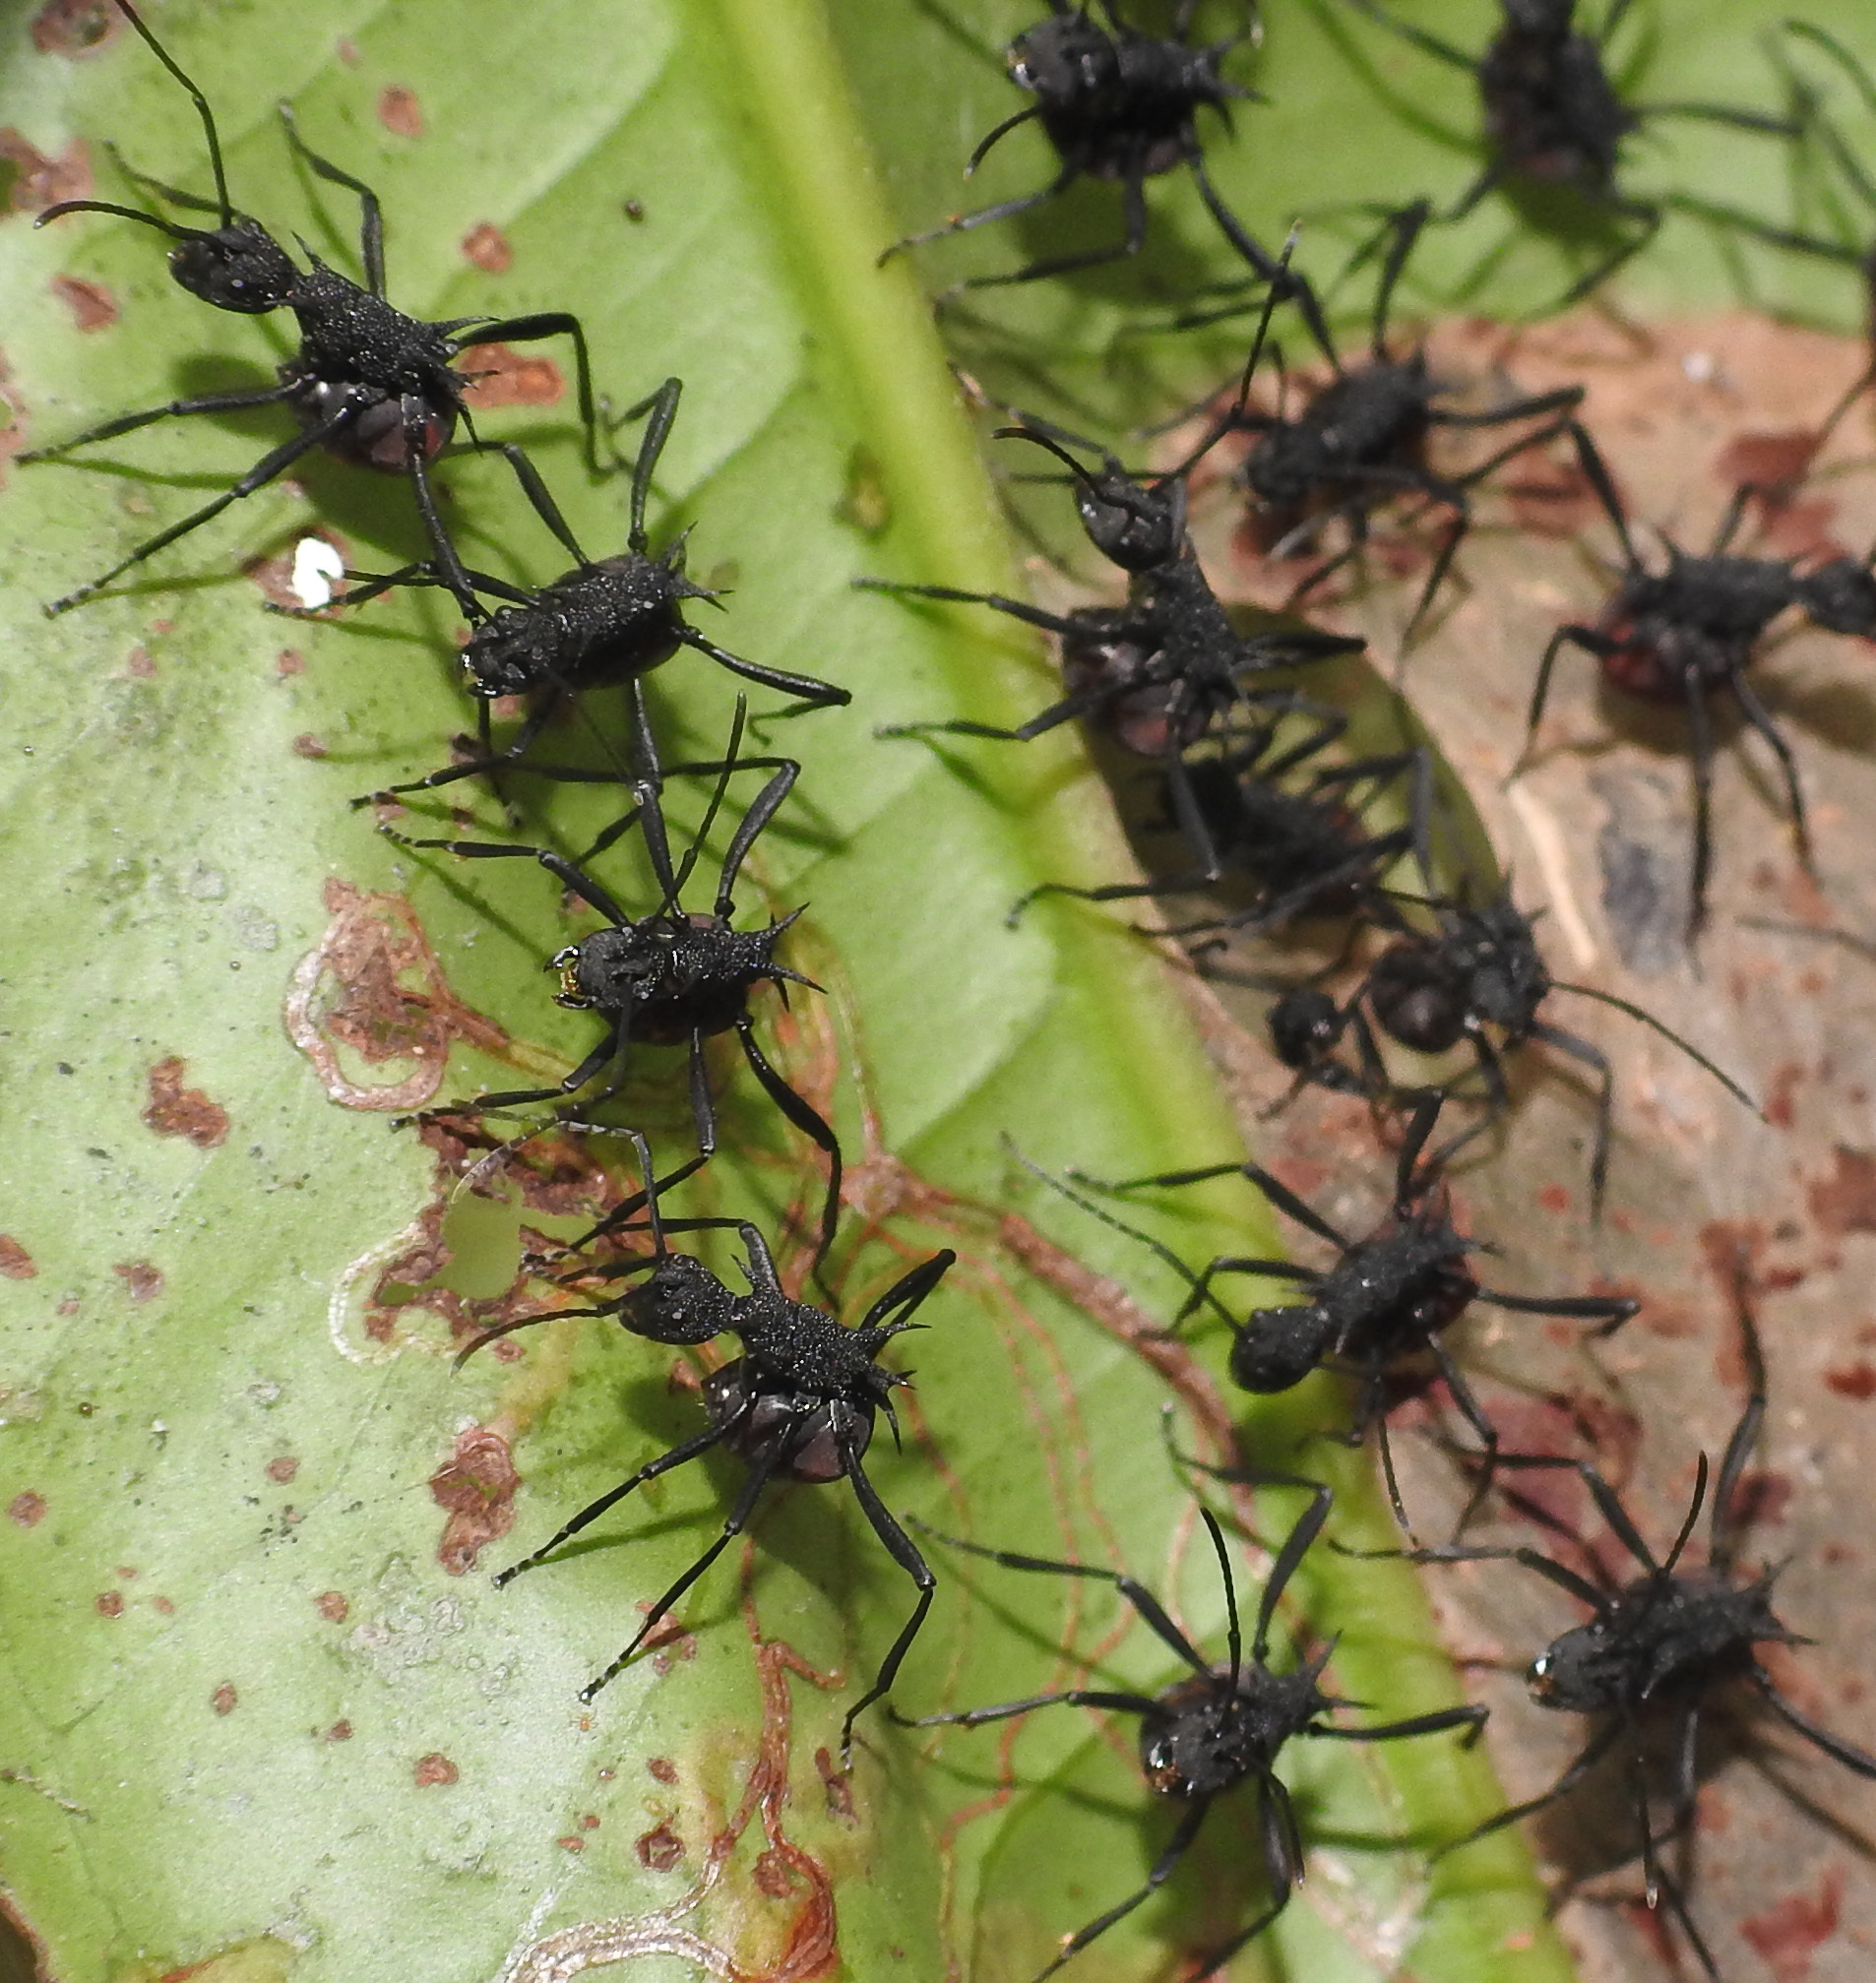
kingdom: Animalia
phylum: Arthropoda
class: Insecta
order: Hymenoptera
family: Formicidae
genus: Polyrhachis
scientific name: Polyrhachis armata
